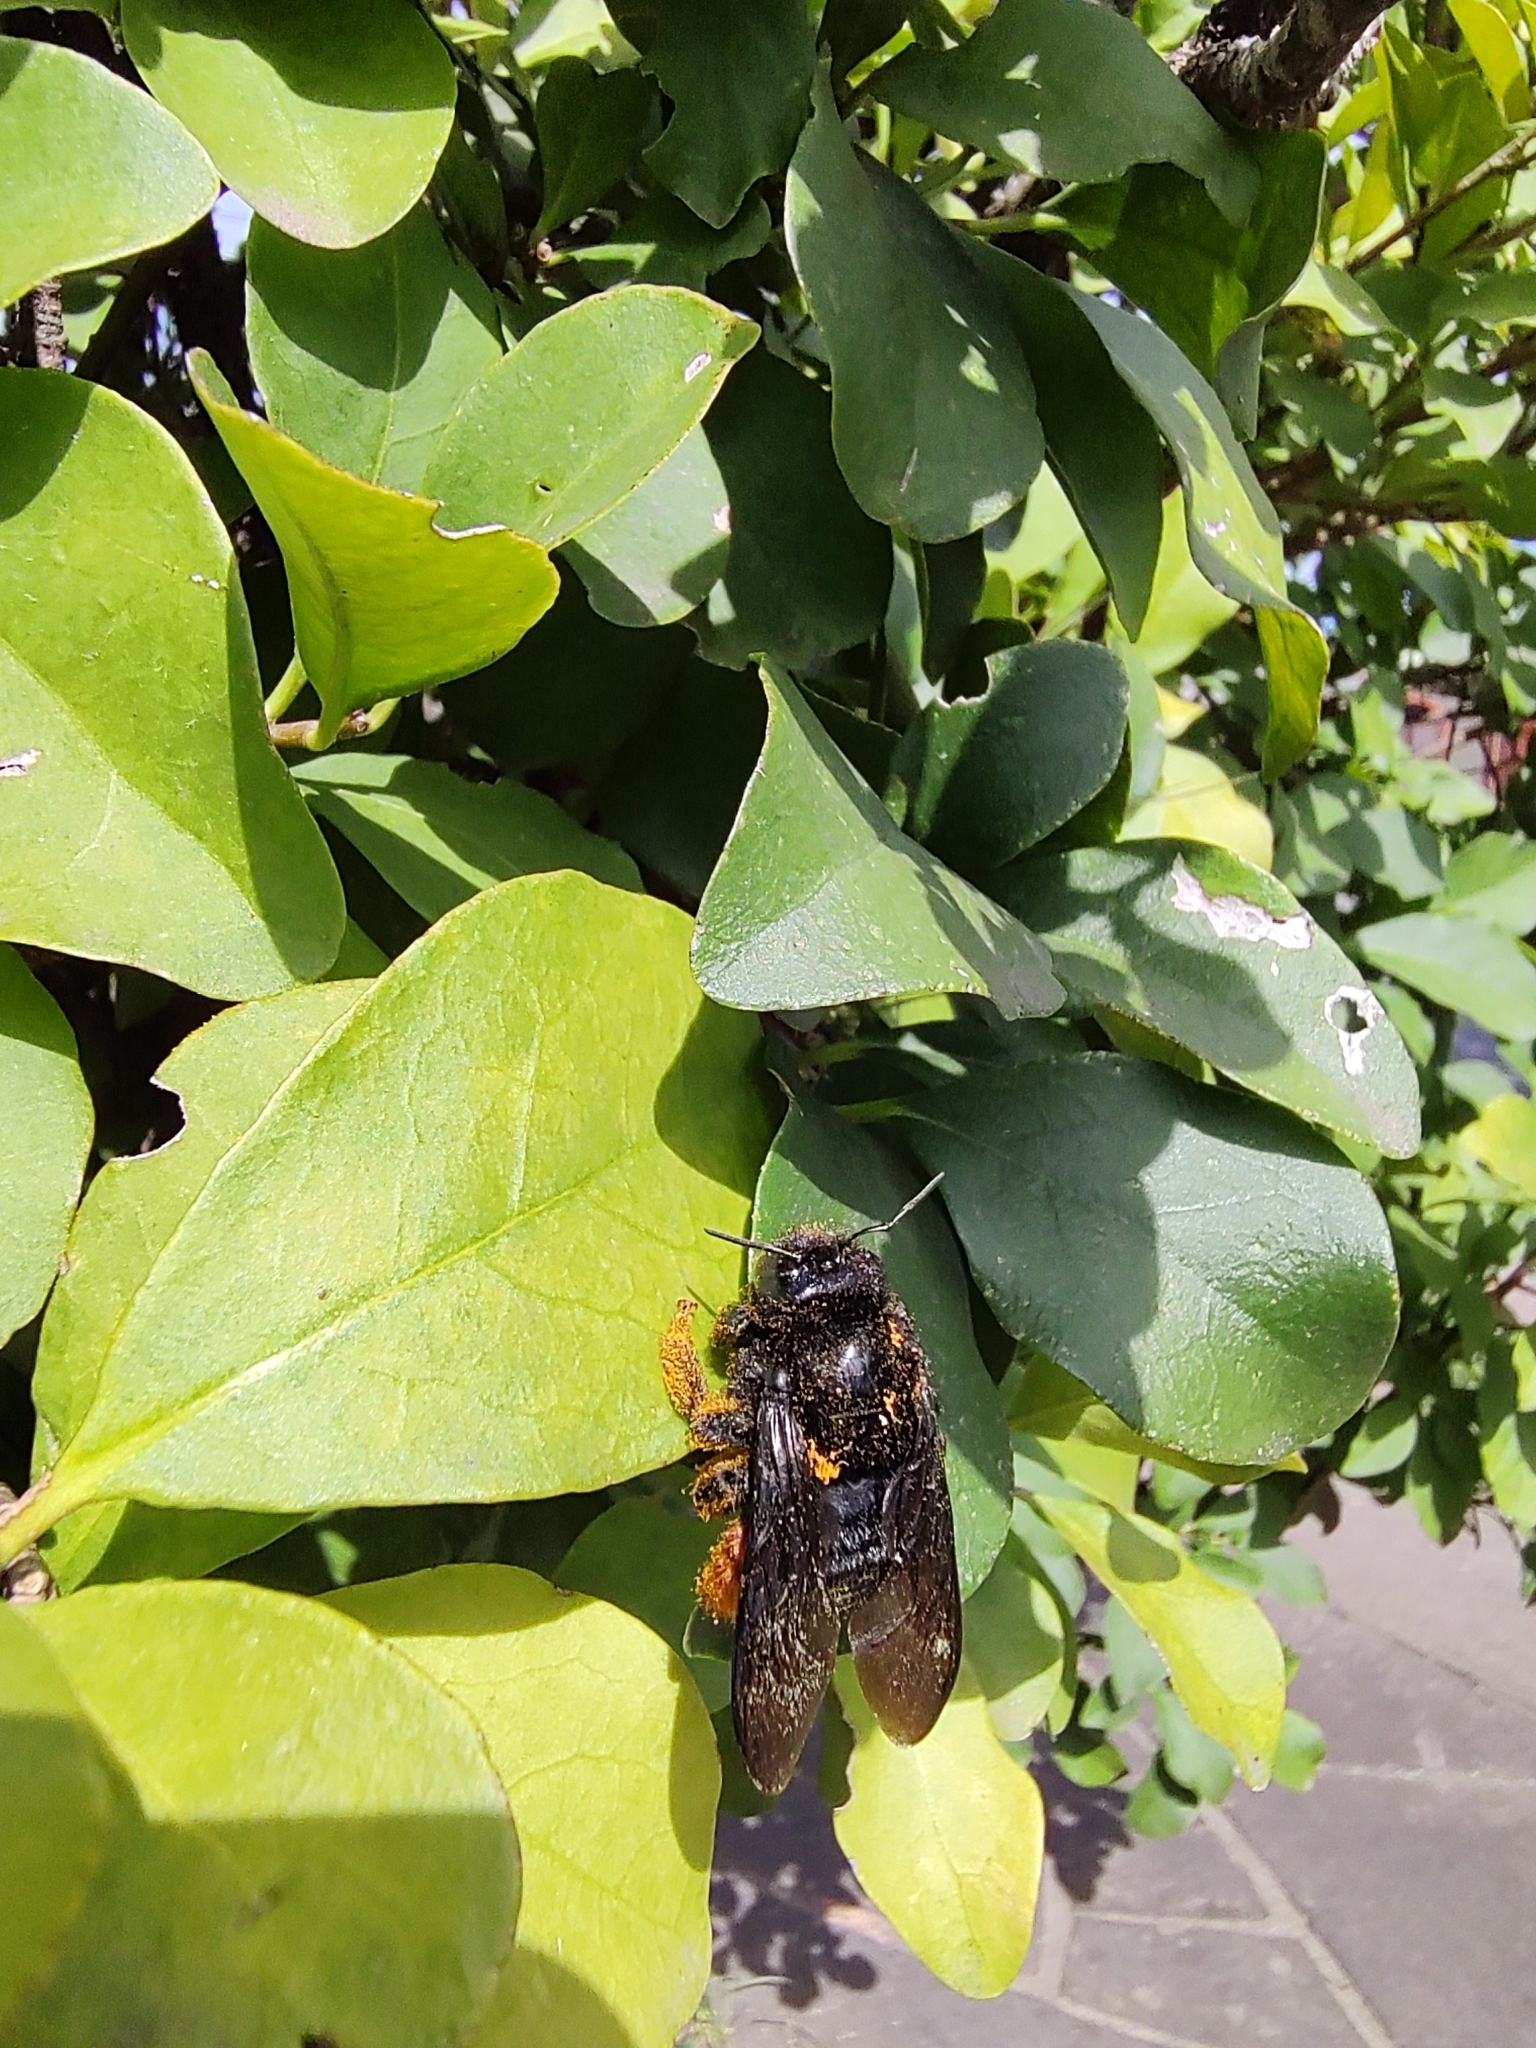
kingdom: Animalia
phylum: Arthropoda
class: Insecta
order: Hymenoptera
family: Apidae
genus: Xylocopa
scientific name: Xylocopa augusti
